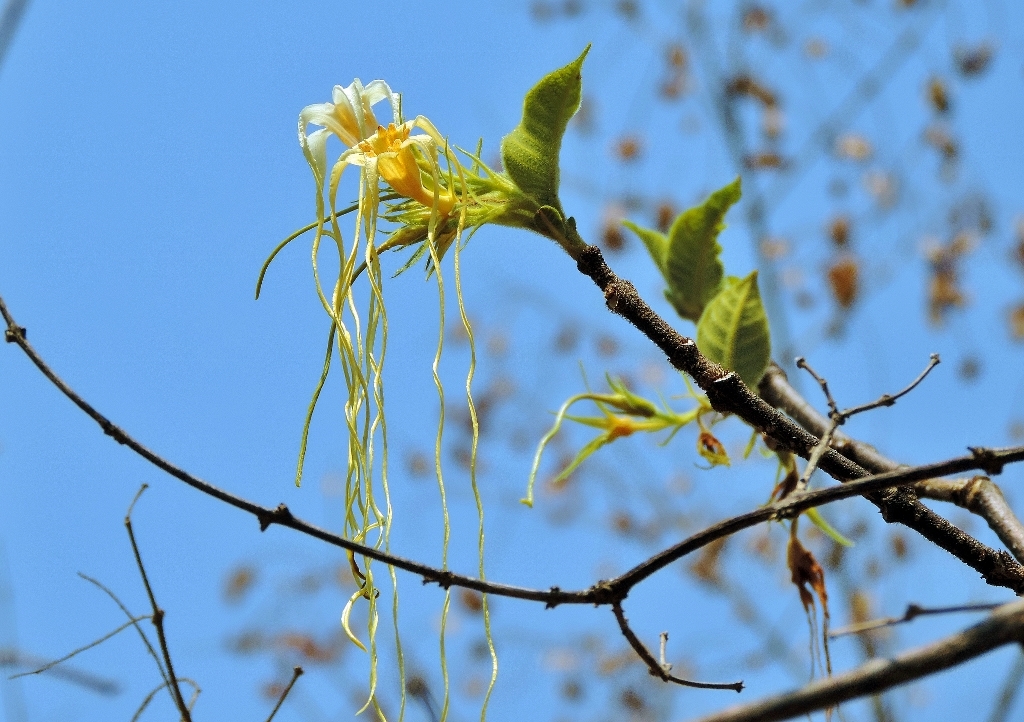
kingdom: Plantae
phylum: Tracheophyta
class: Magnoliopsida
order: Gentianales
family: Apocynaceae
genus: Strophanthus
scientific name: Strophanthus kombe
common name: Kombe
